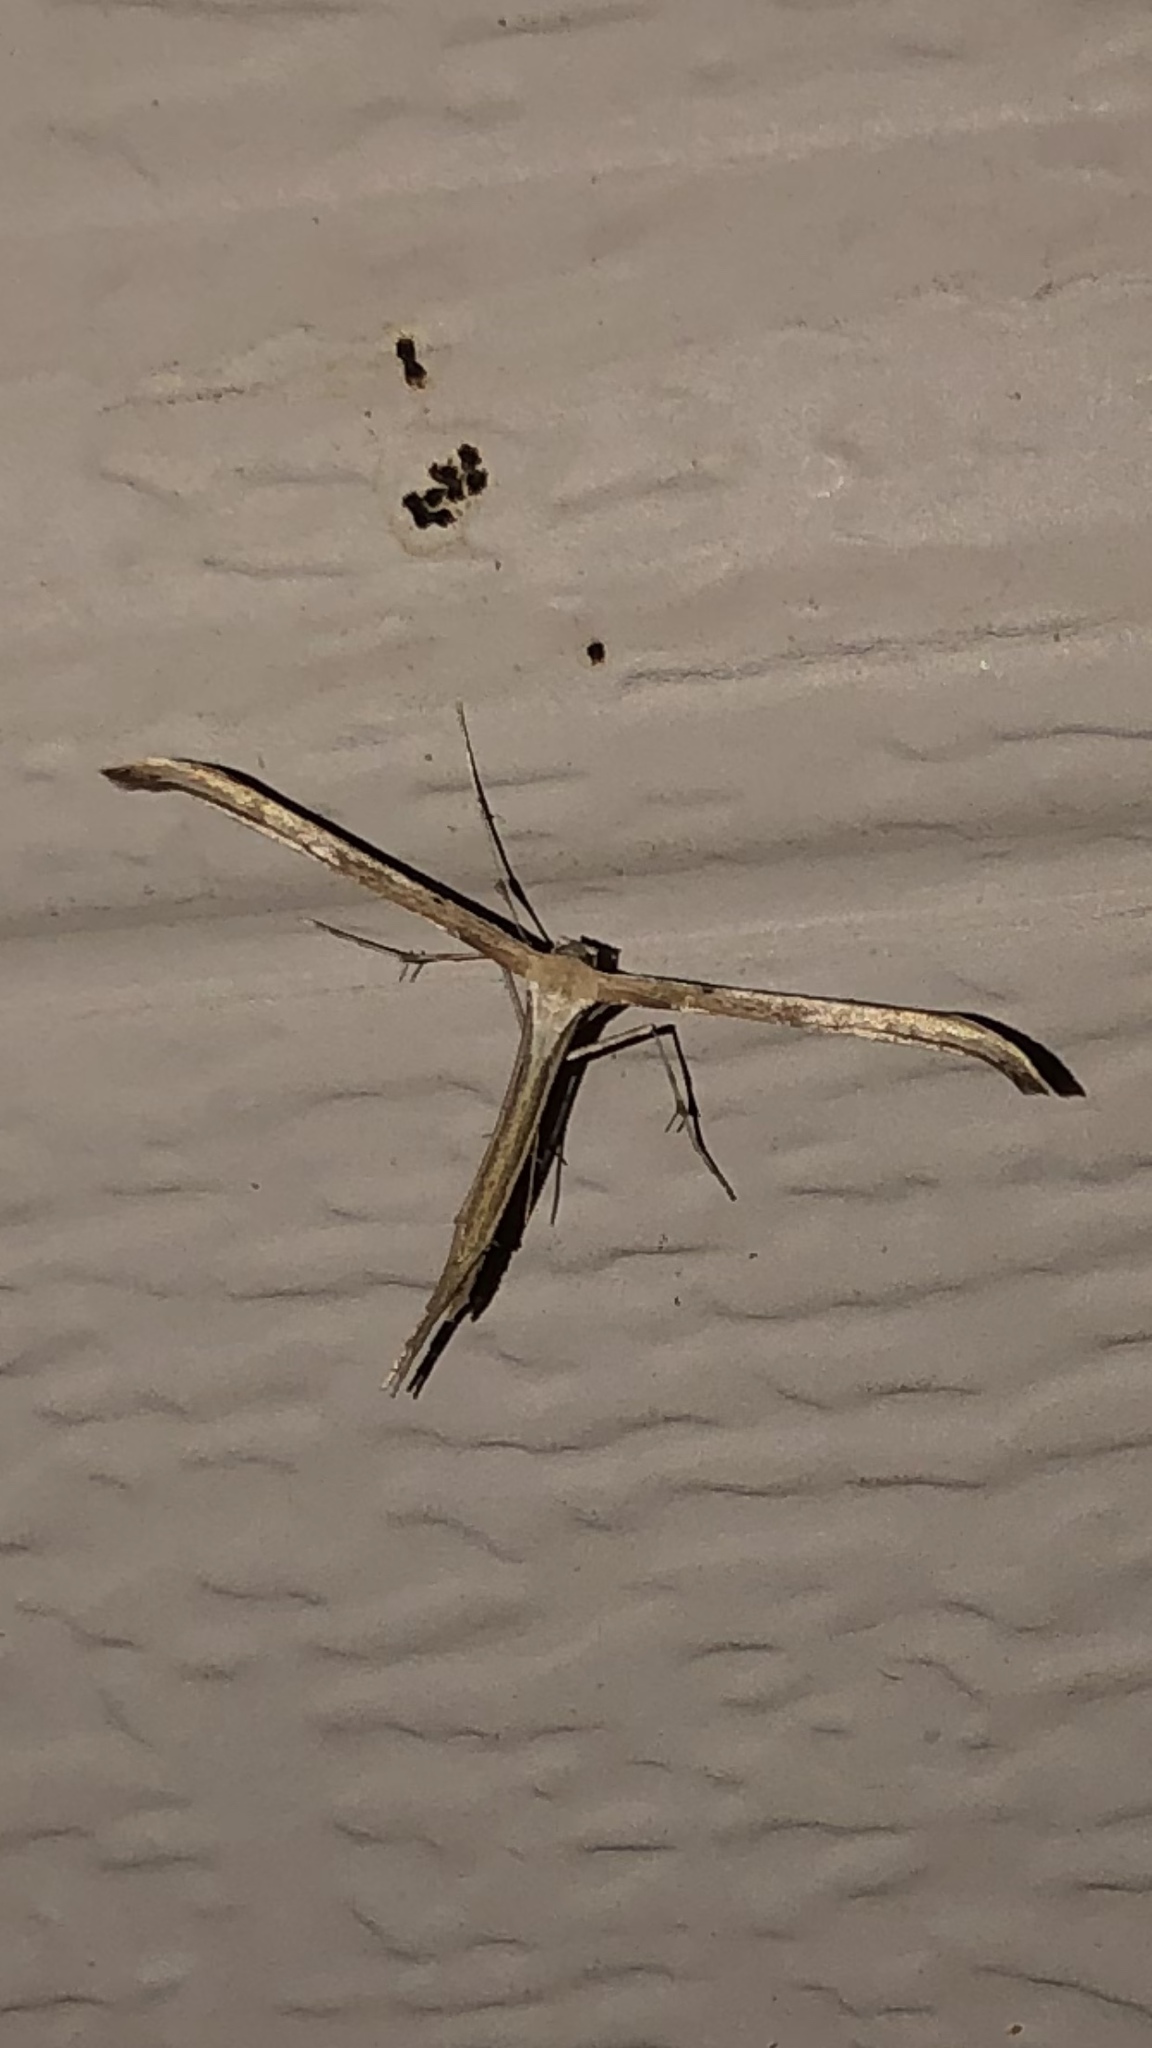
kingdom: Animalia
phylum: Arthropoda
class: Insecta
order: Lepidoptera
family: Pterophoridae
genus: Emmelina
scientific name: Emmelina monodactyla
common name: Common plume
